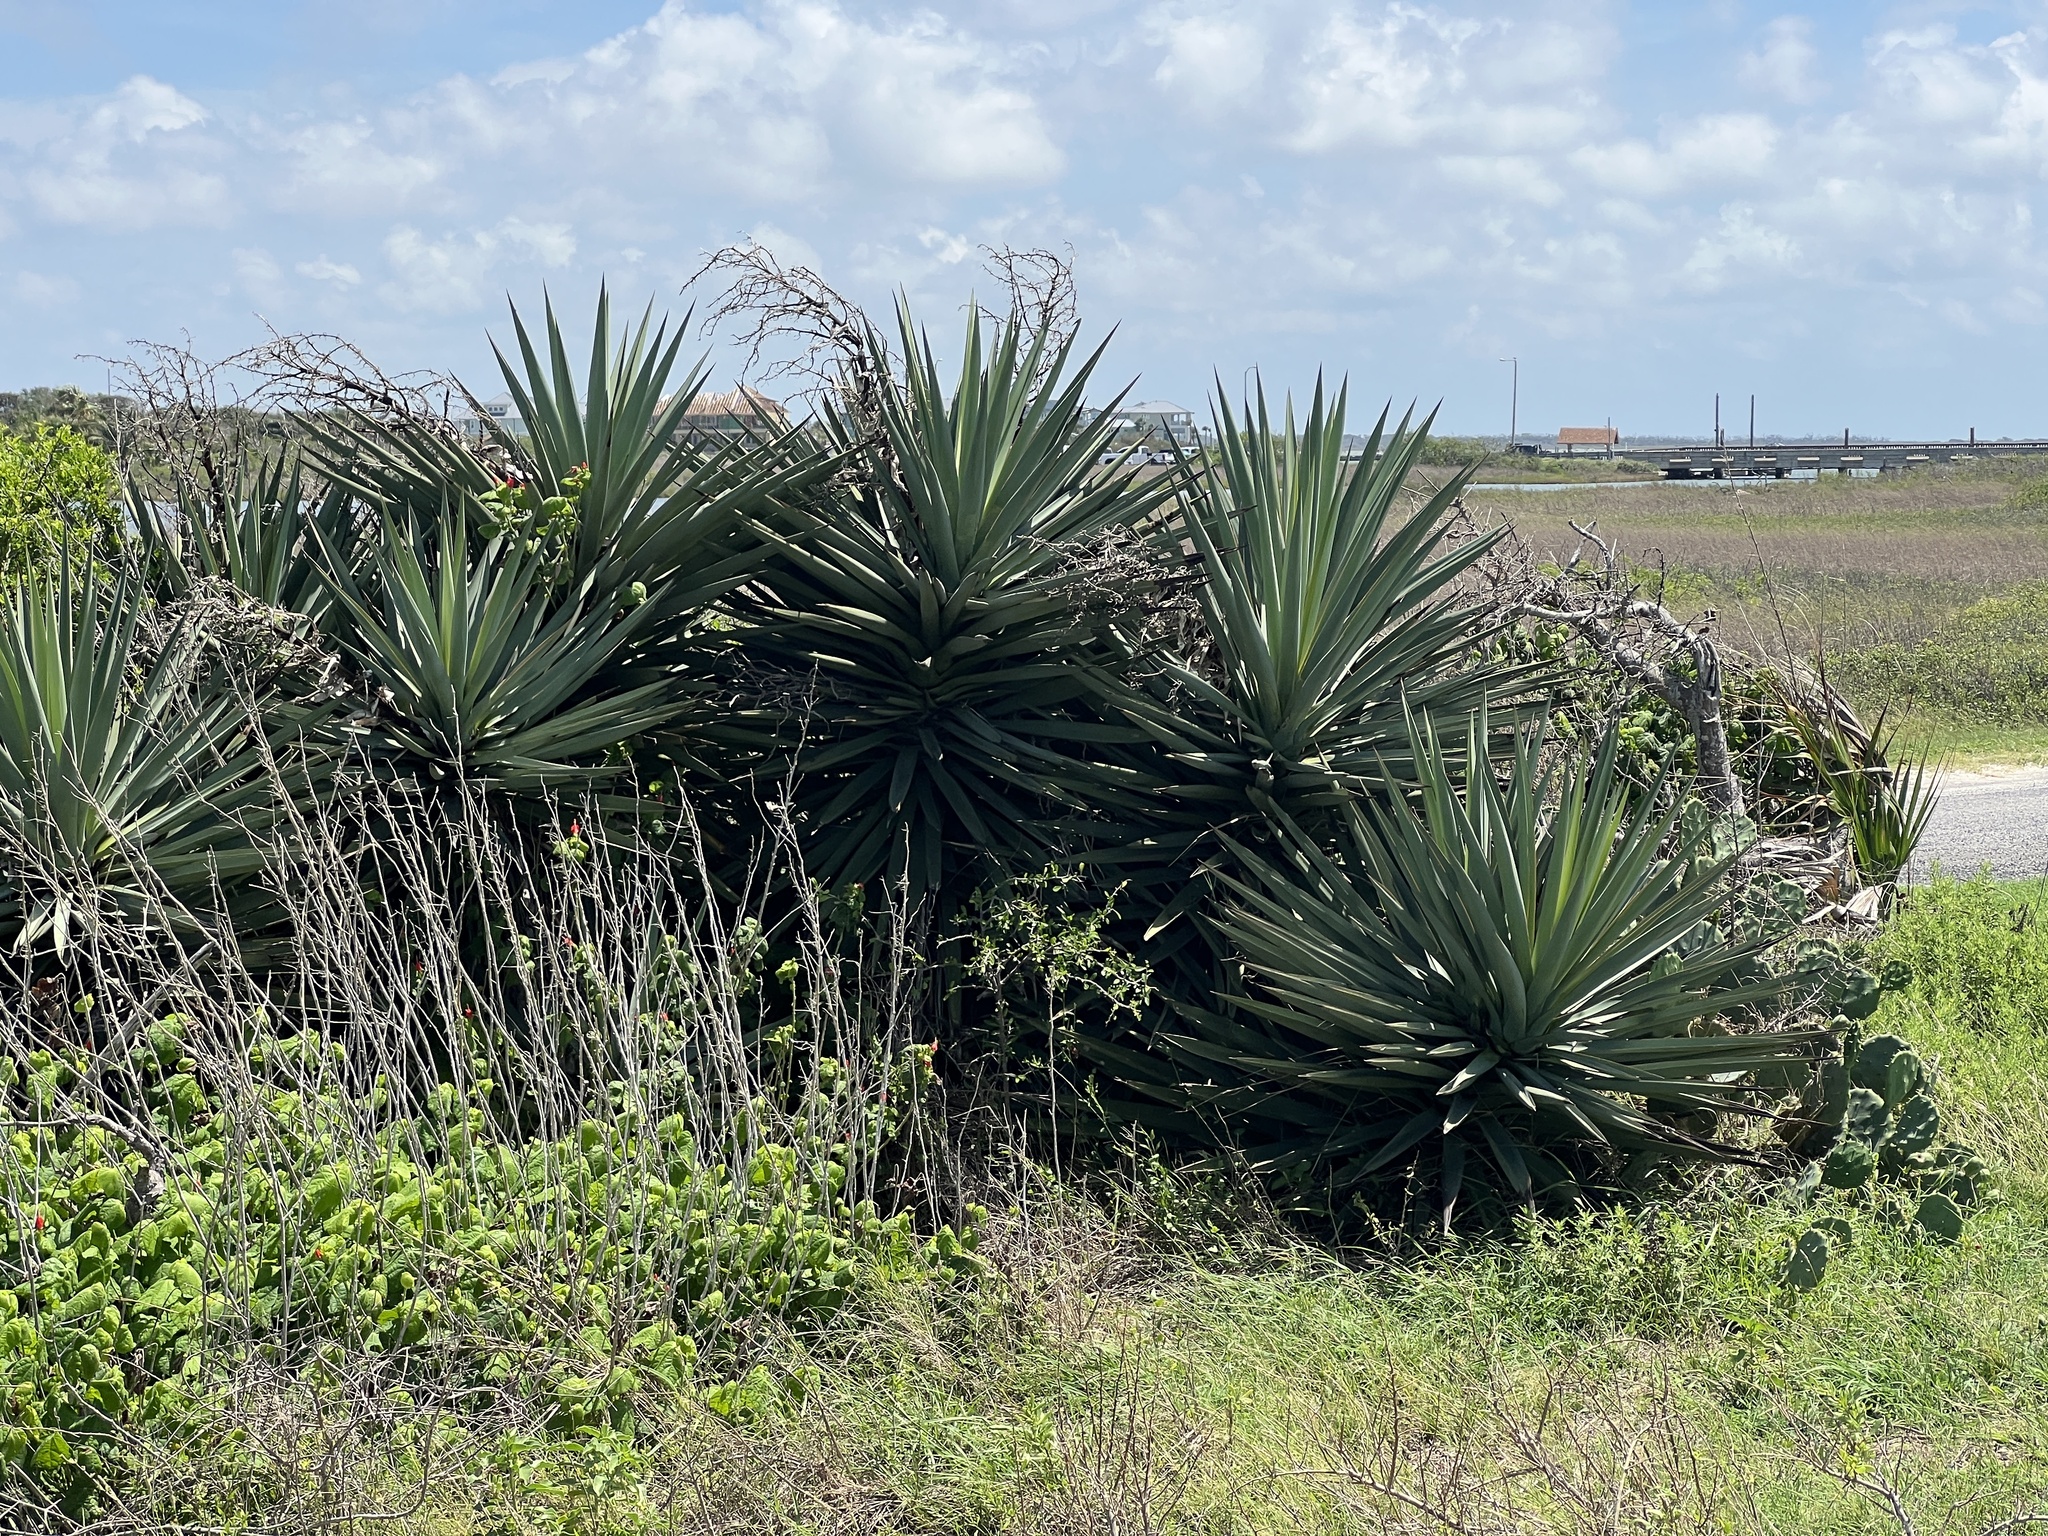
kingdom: Plantae
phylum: Tracheophyta
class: Liliopsida
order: Asparagales
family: Asparagaceae
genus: Yucca
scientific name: Yucca treculiana
